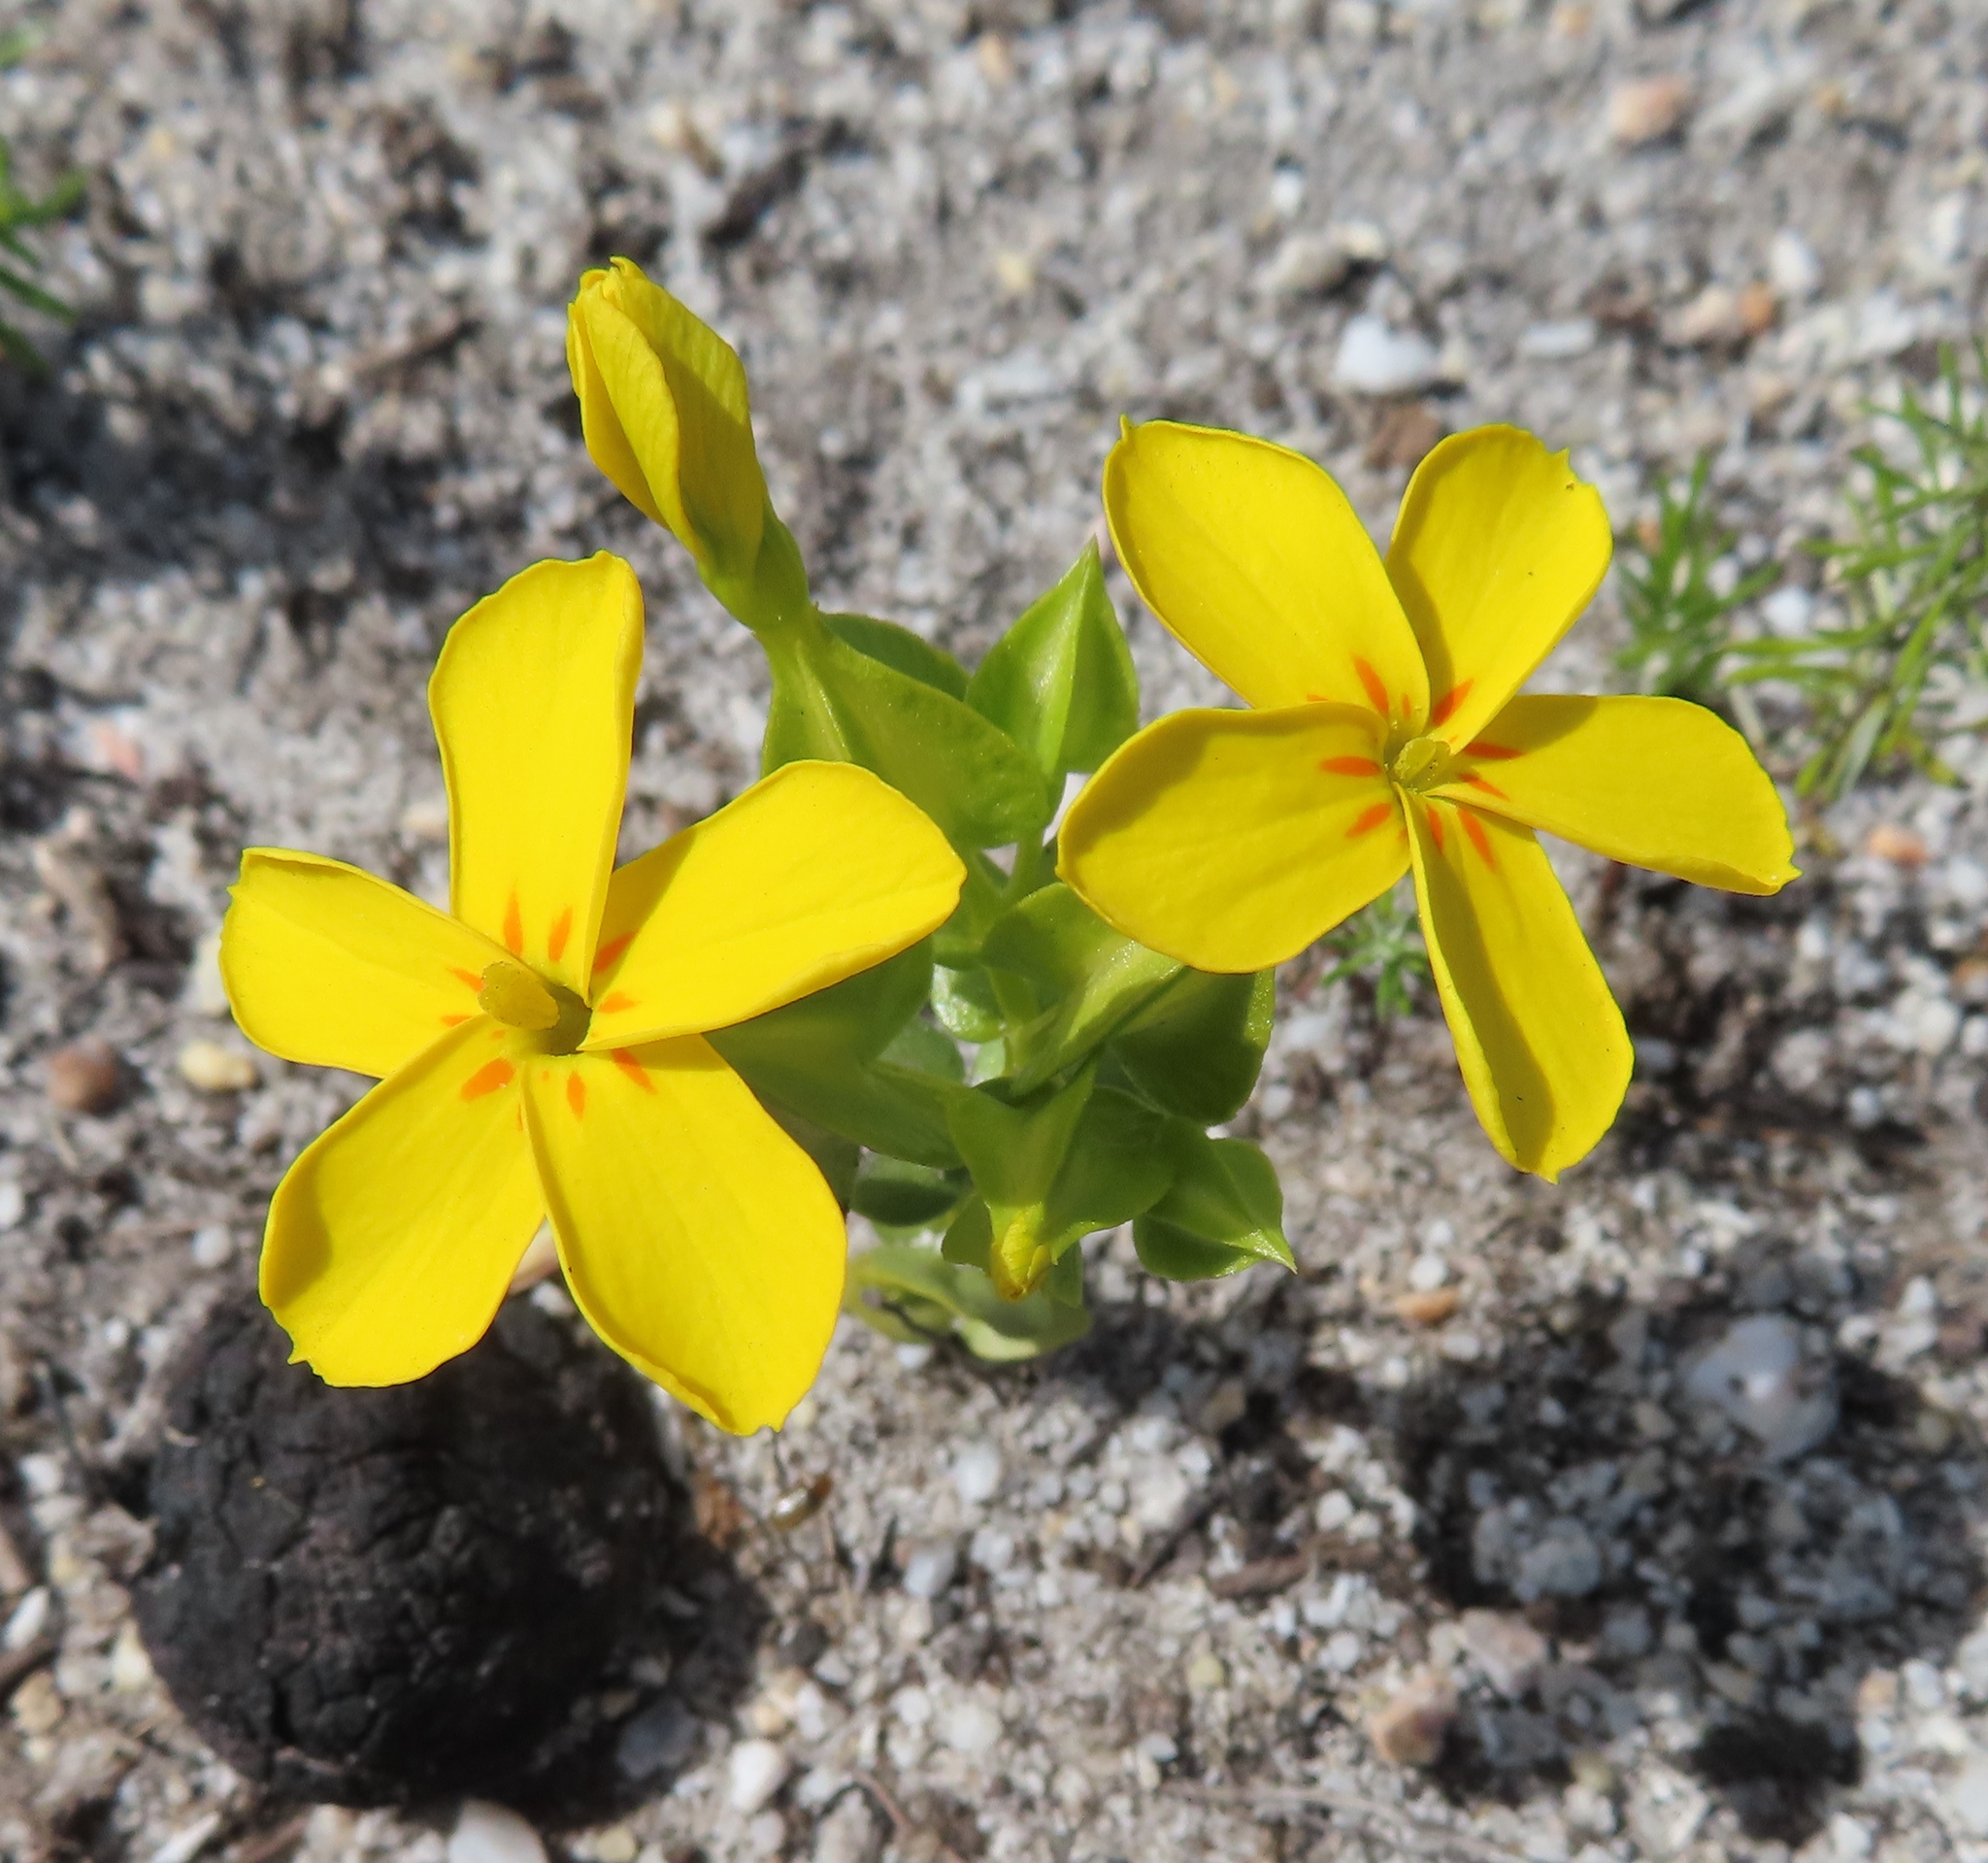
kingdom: Plantae
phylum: Tracheophyta
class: Magnoliopsida
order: Gentianales
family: Gentianaceae
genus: Sebaea
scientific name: Sebaea exacoides
